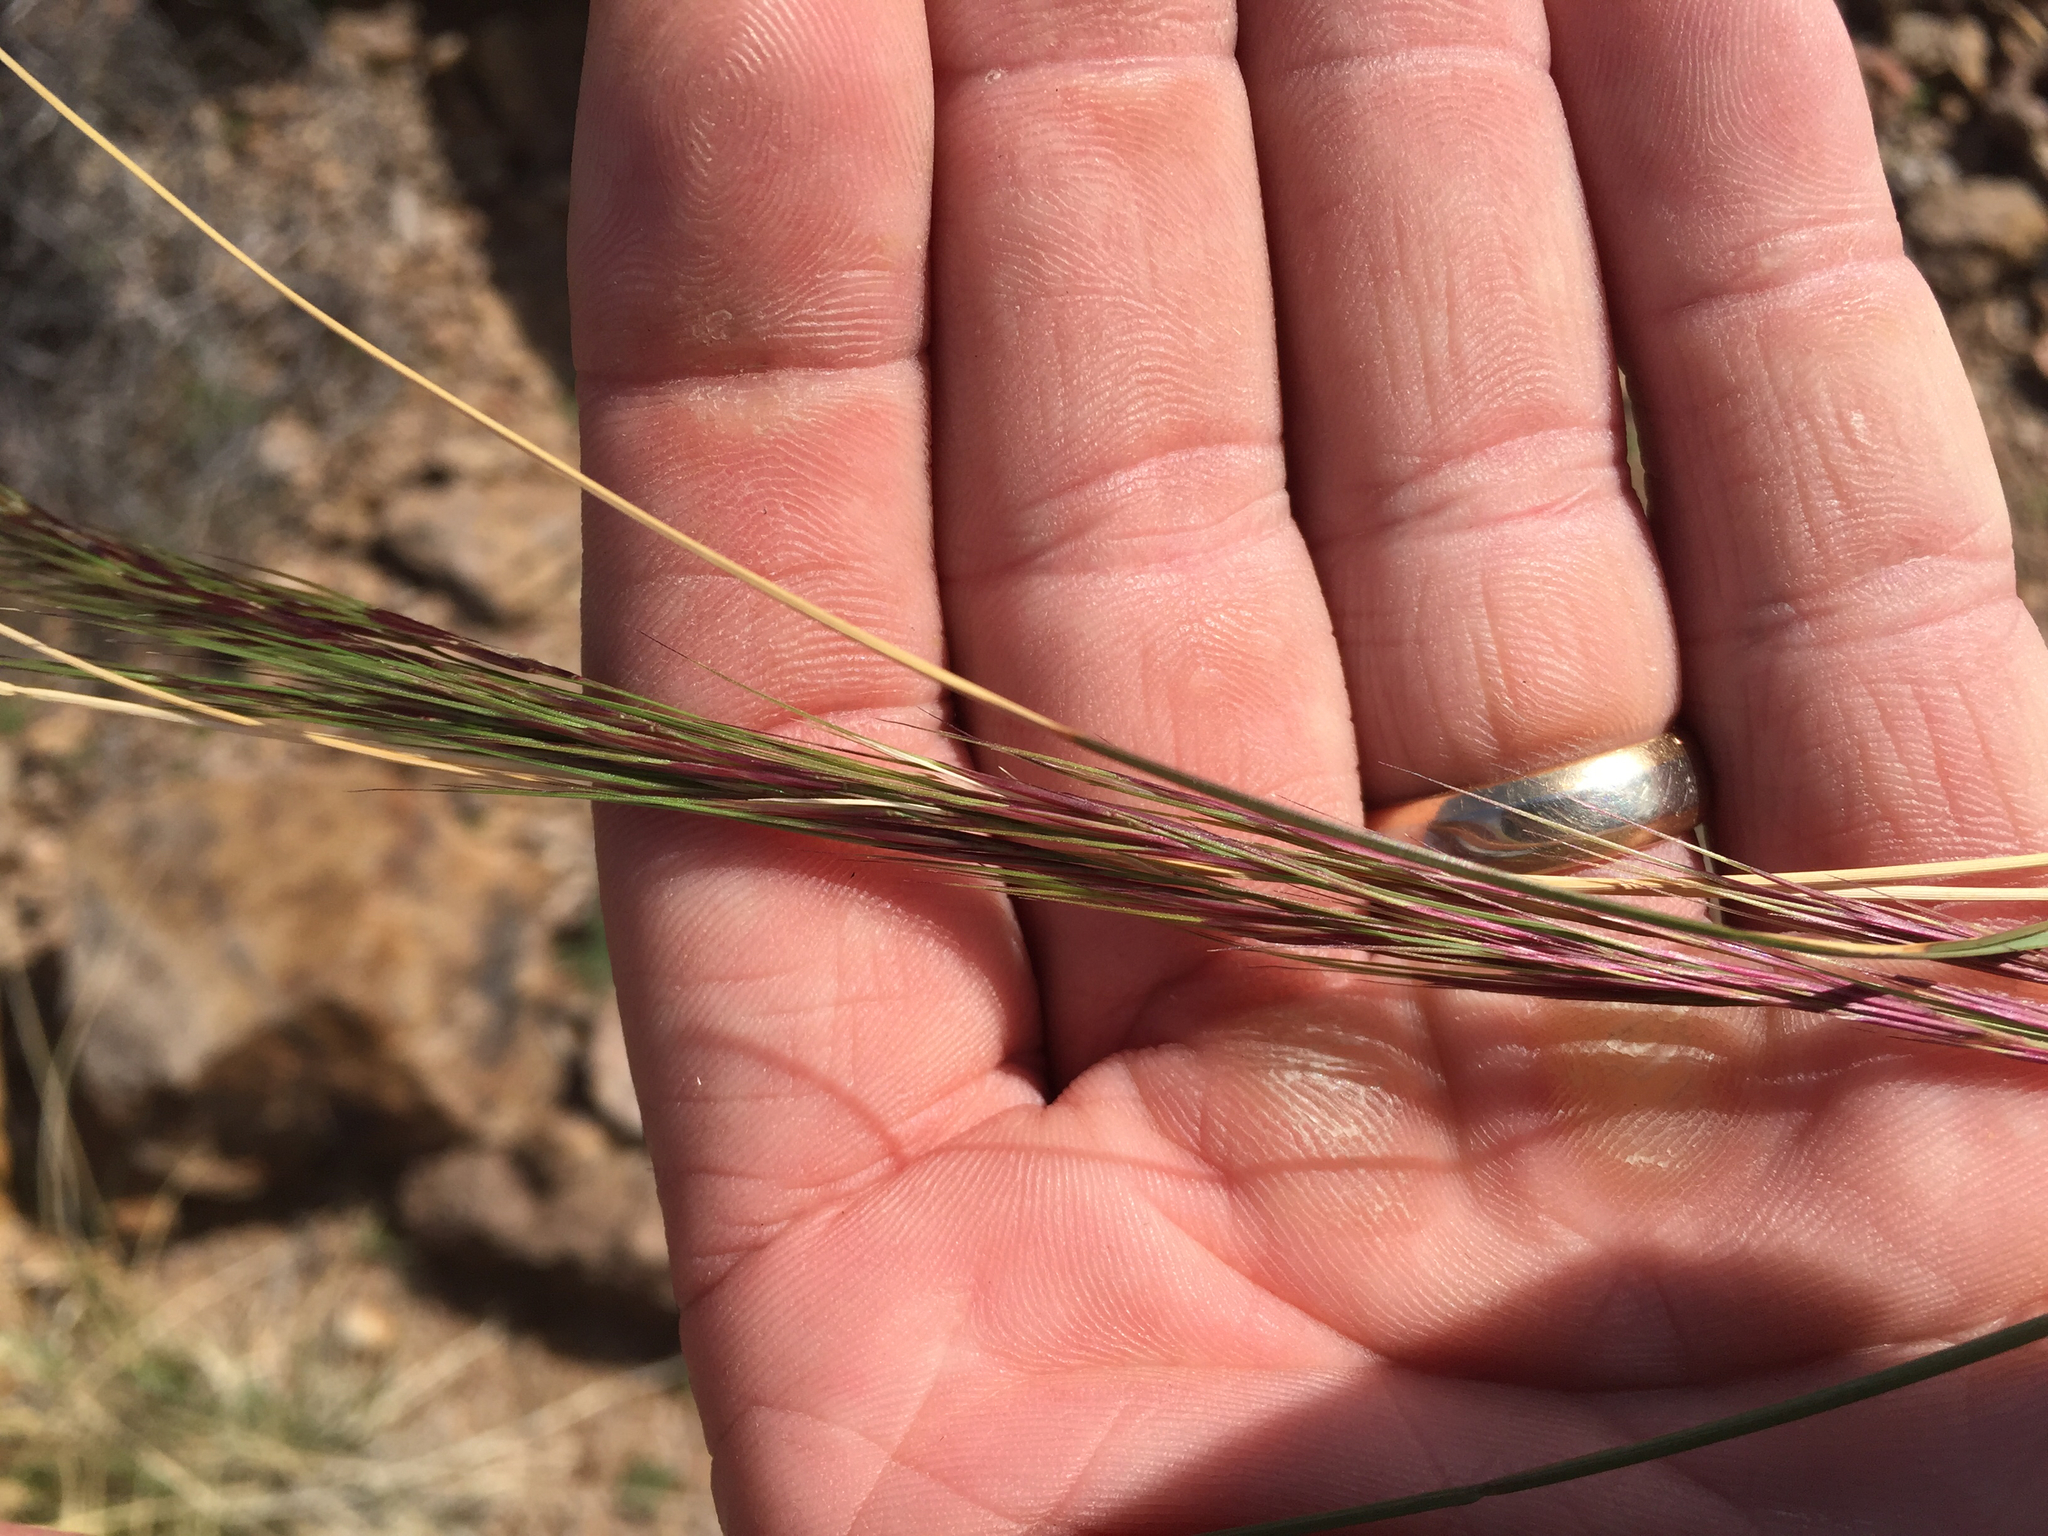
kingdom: Plantae
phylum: Tracheophyta
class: Liliopsida
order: Poales
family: Poaceae
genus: Aristida
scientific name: Aristida purpurea
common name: Purple threeawn
